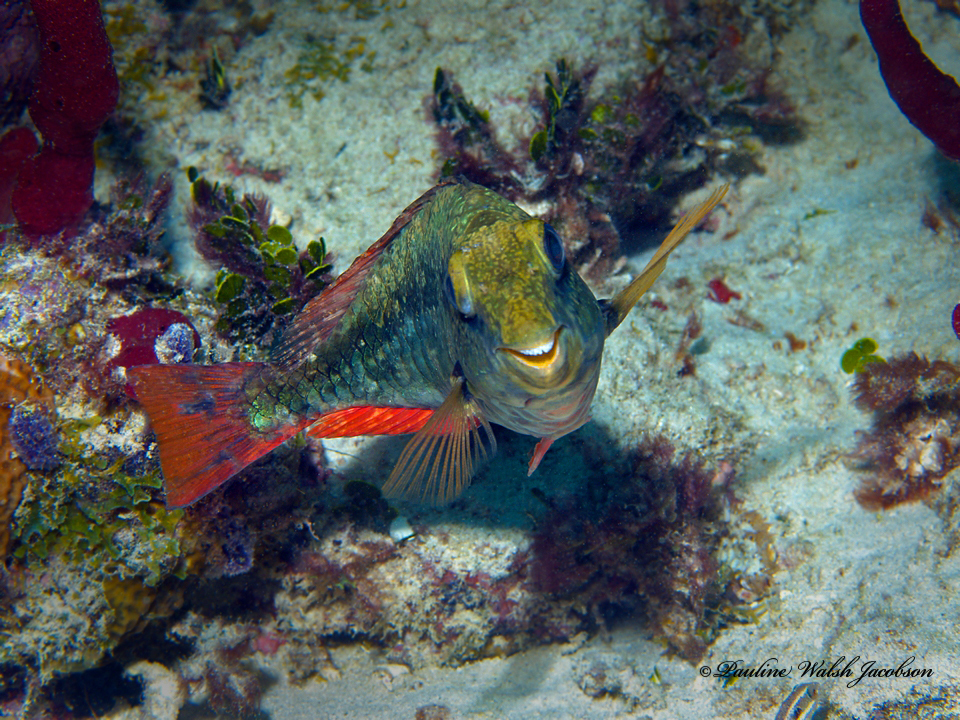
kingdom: Animalia
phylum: Chordata
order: Perciformes
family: Scaridae
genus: Sparisoma
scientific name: Sparisoma aurofrenatum
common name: Redband parrotfish
